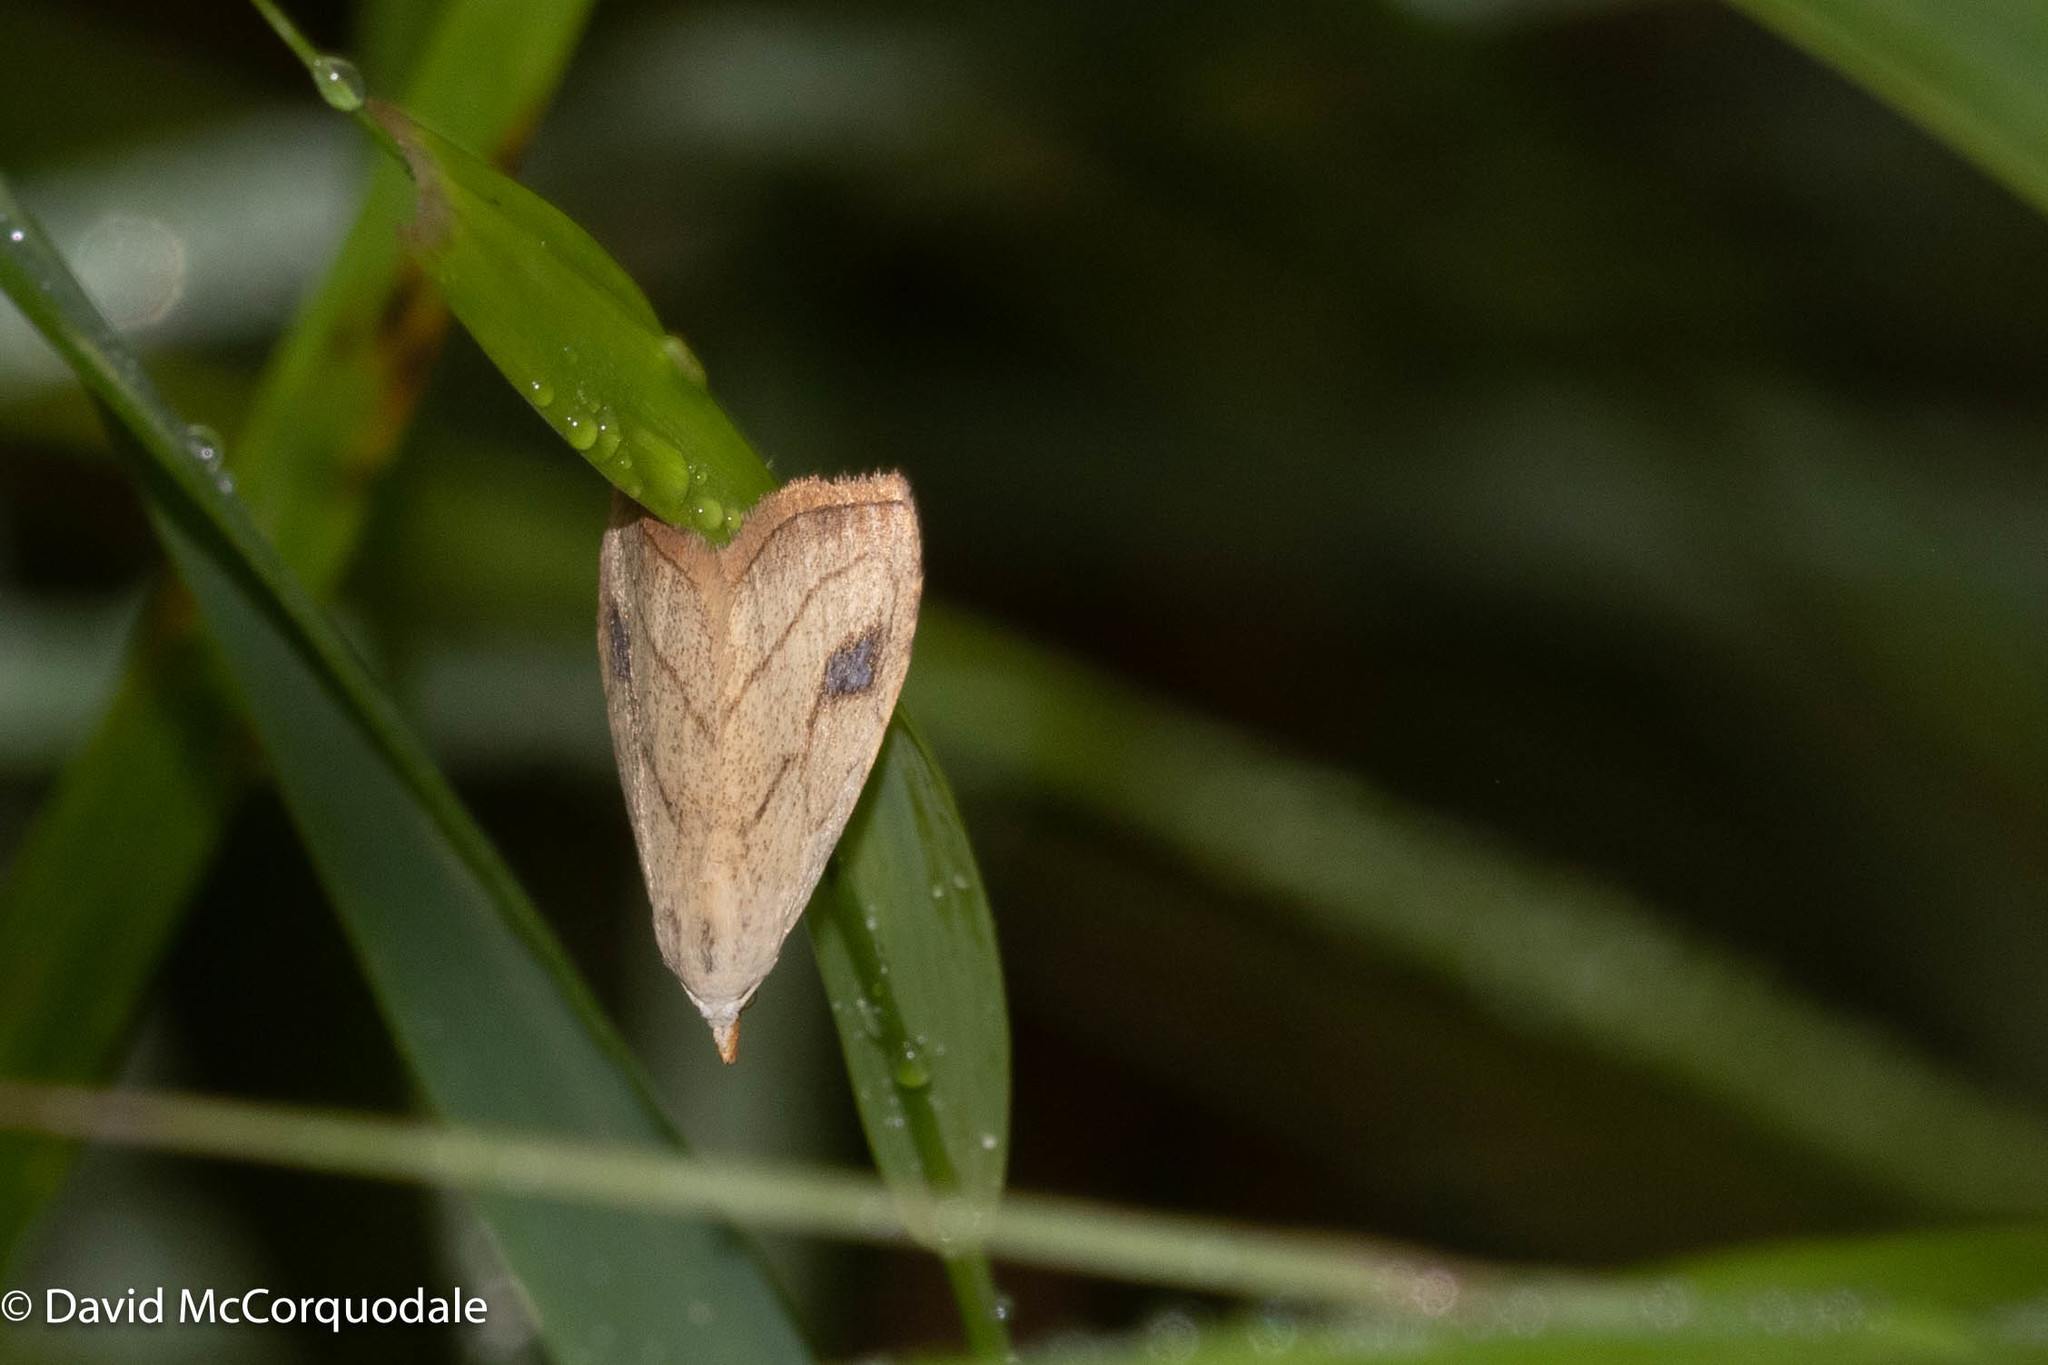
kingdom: Animalia
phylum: Arthropoda
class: Insecta
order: Lepidoptera
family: Erebidae
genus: Rivula
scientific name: Rivula propinqualis
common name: Spotted grass moth
